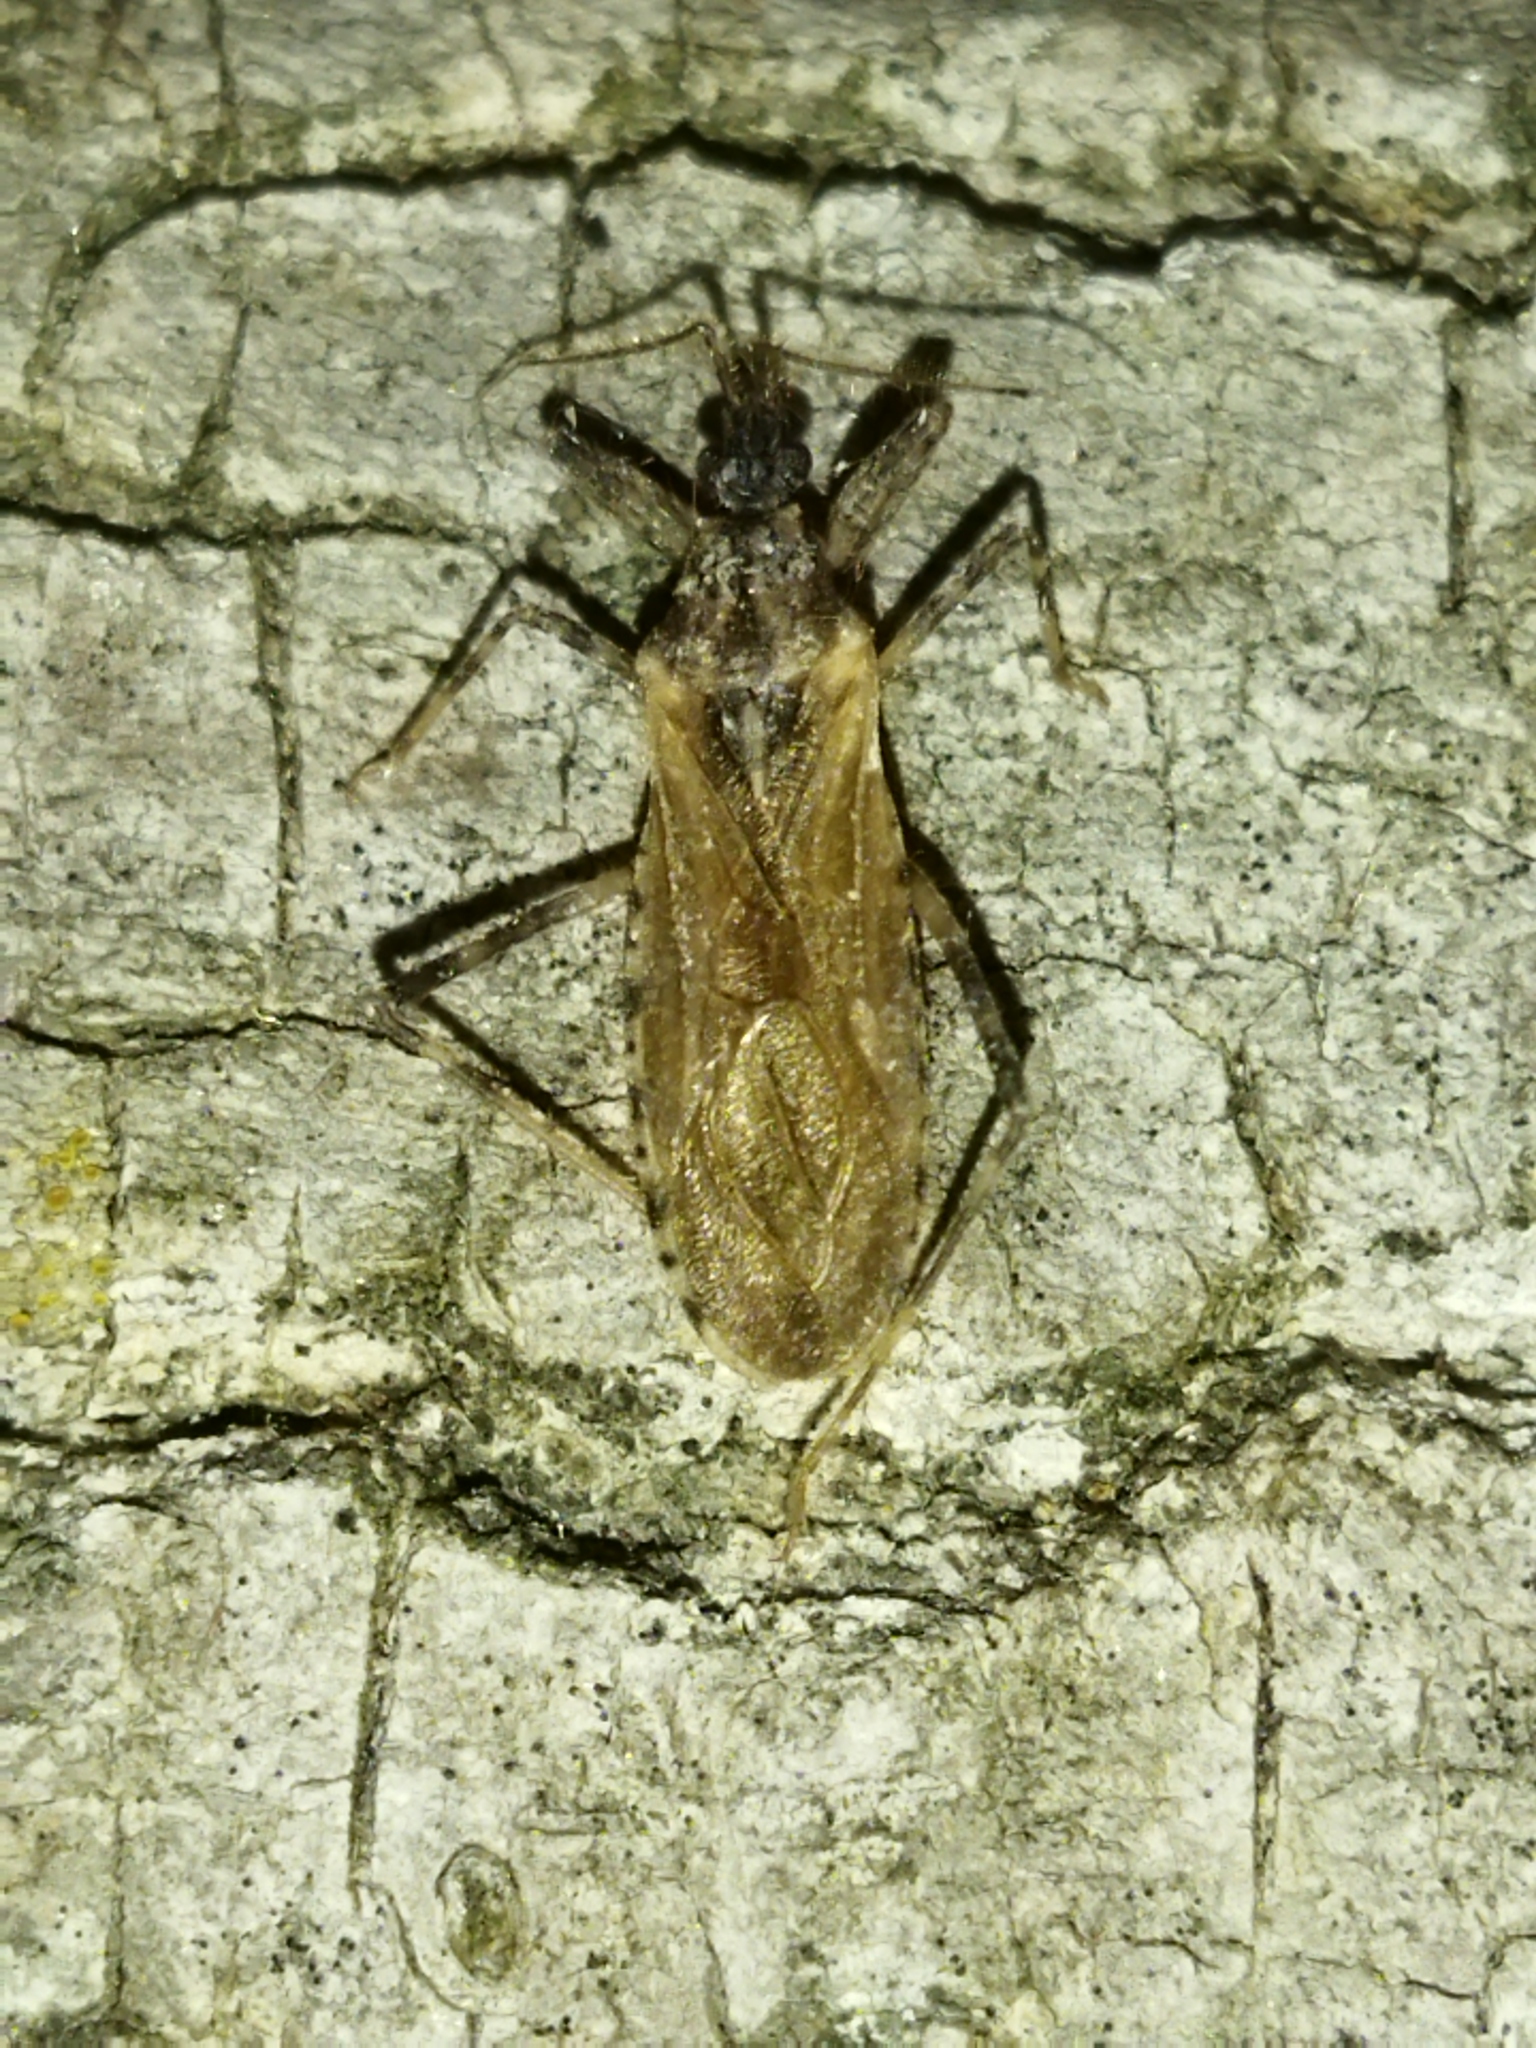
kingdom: Animalia
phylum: Arthropoda
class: Insecta
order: Hemiptera
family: Reduviidae
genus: Oncocephalus
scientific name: Oncocephalus squalidus
